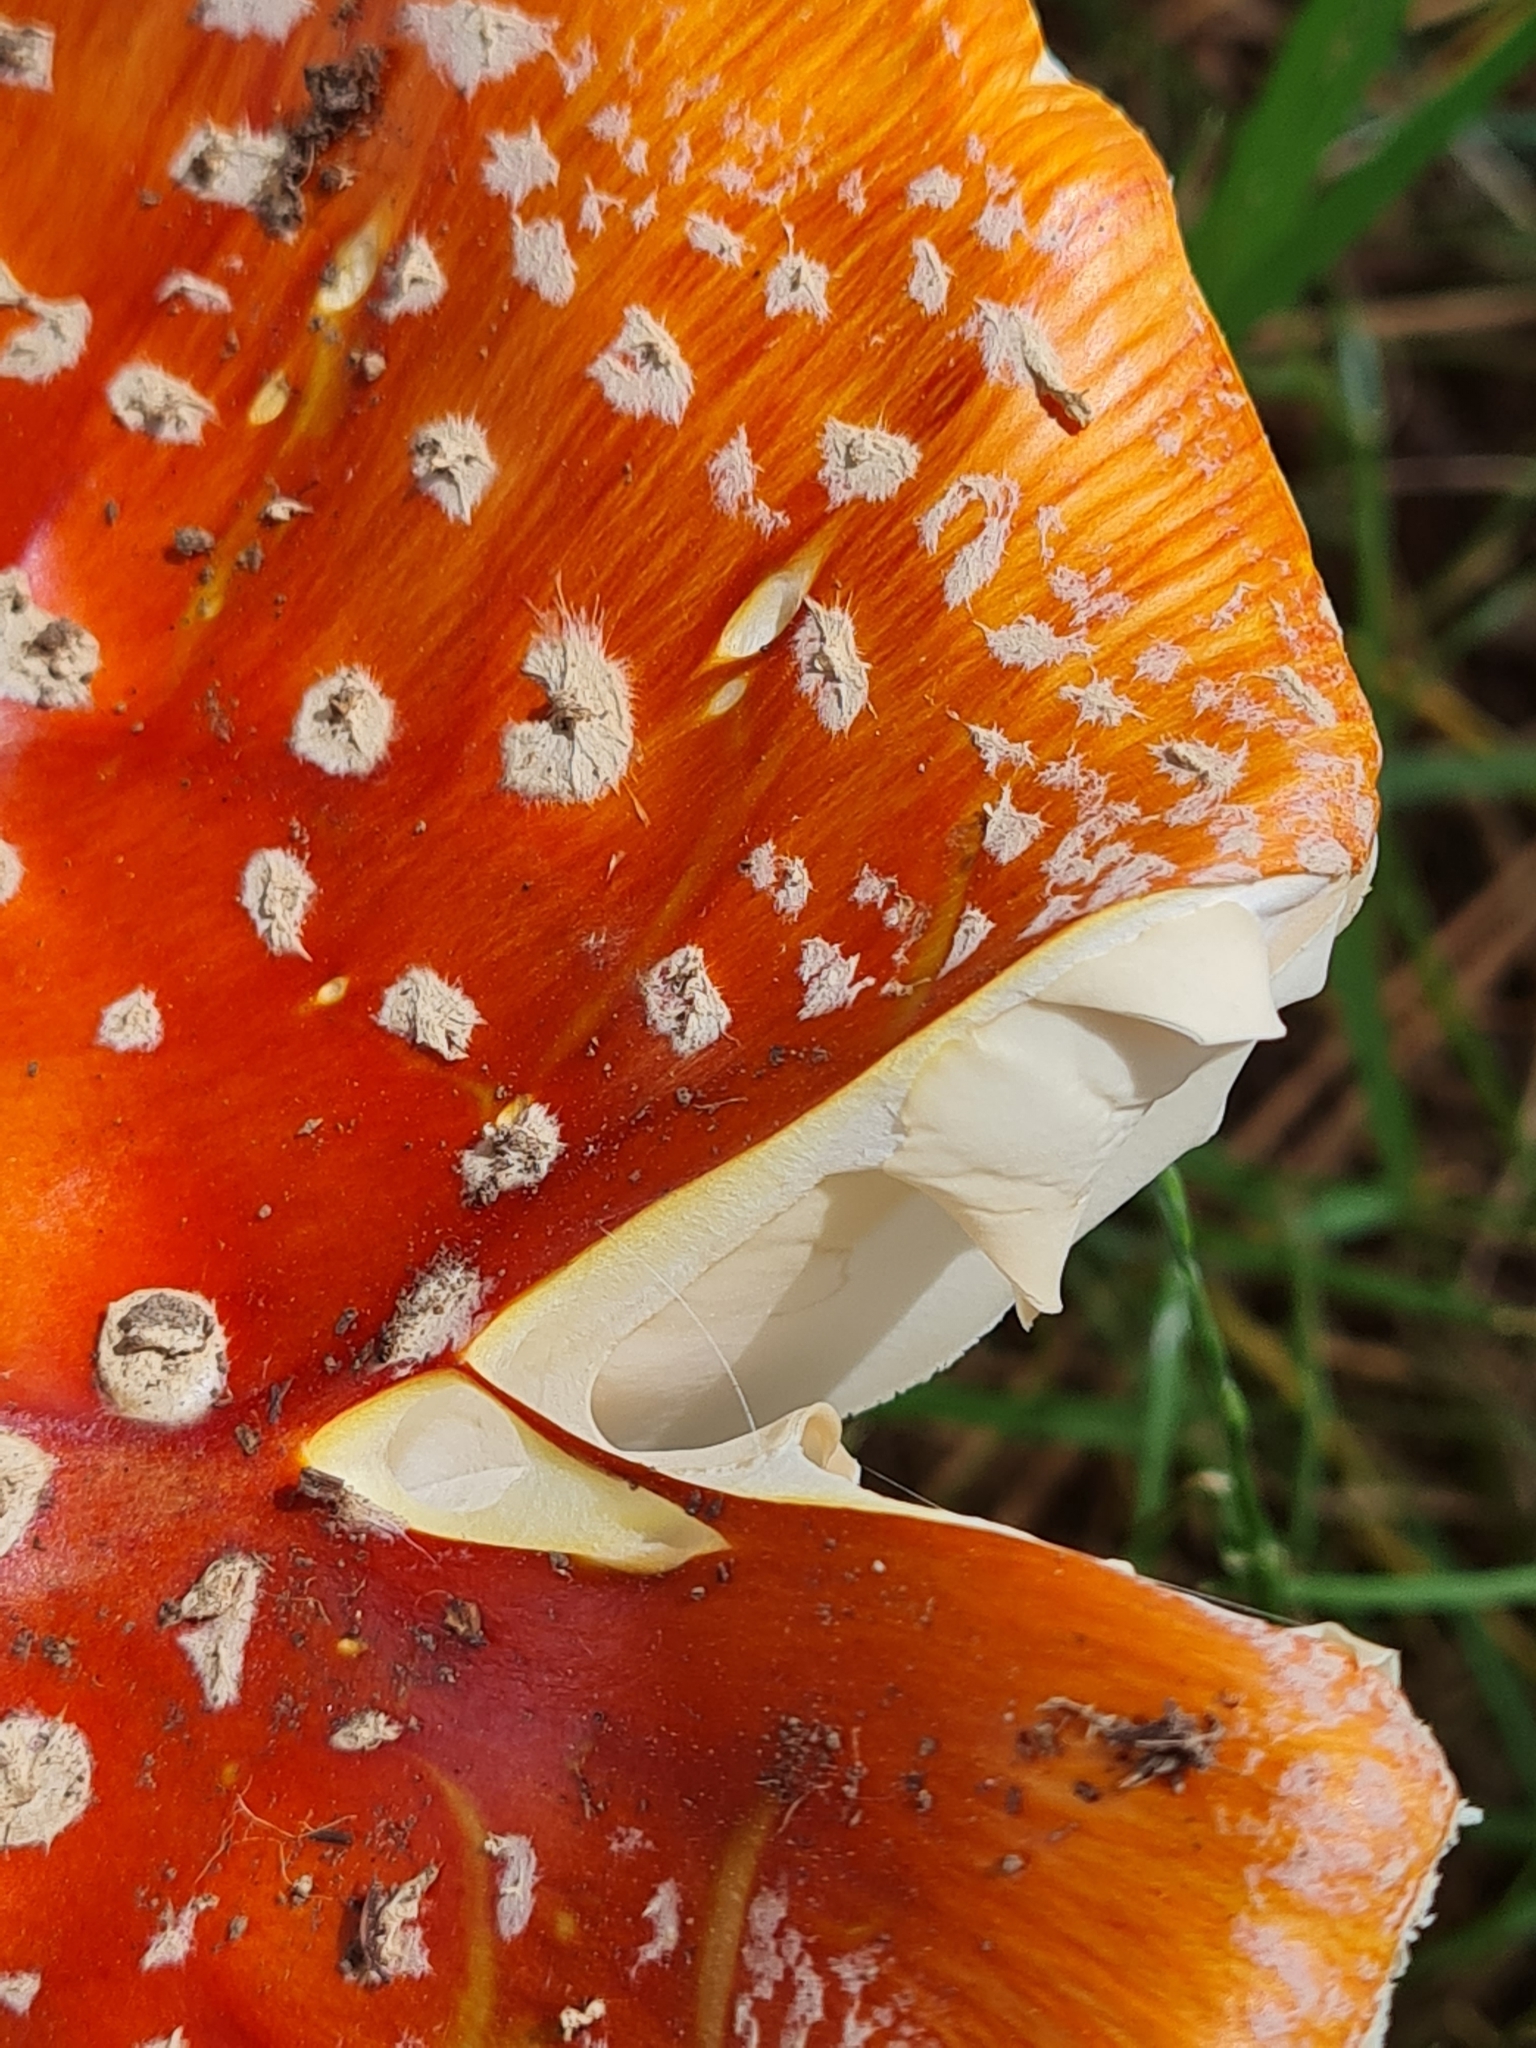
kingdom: Fungi
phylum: Basidiomycota
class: Agaricomycetes
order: Agaricales
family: Amanitaceae
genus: Amanita
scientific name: Amanita muscaria
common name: Fly agaric
